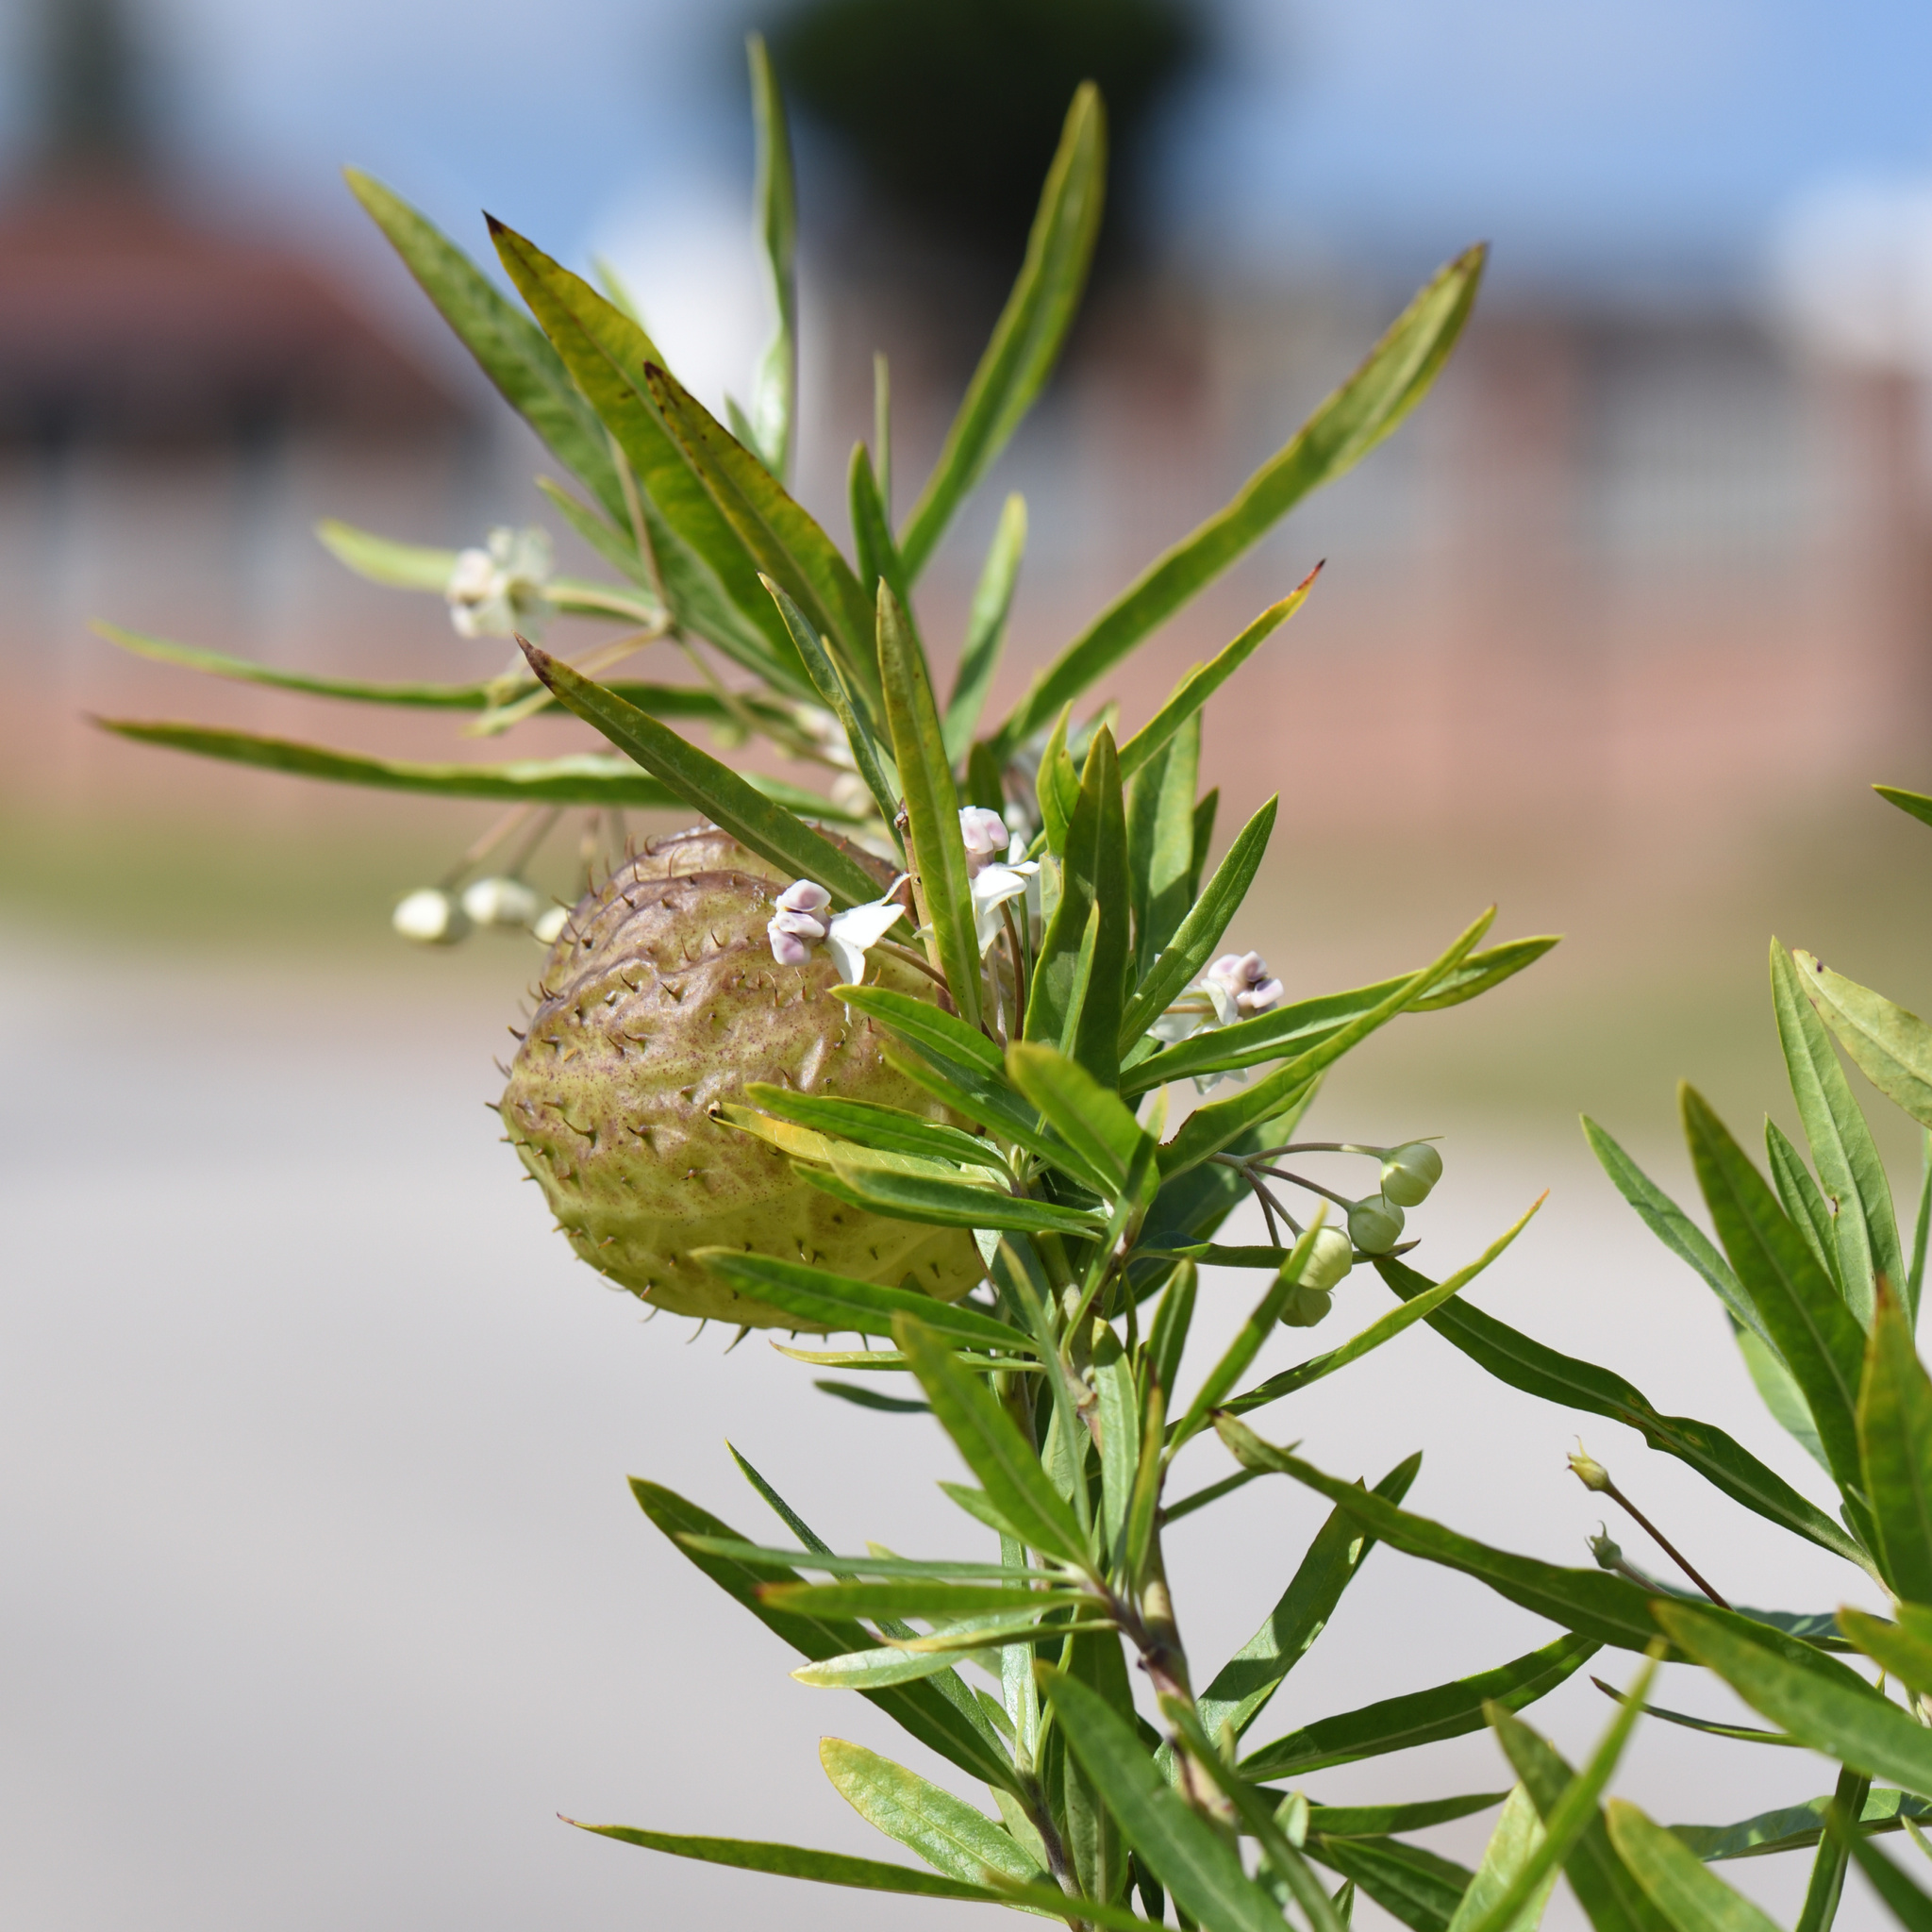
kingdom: Plantae
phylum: Tracheophyta
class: Magnoliopsida
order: Gentianales
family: Apocynaceae
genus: Gomphocarpus
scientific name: Gomphocarpus physocarpus
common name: Balloon cotton bush
